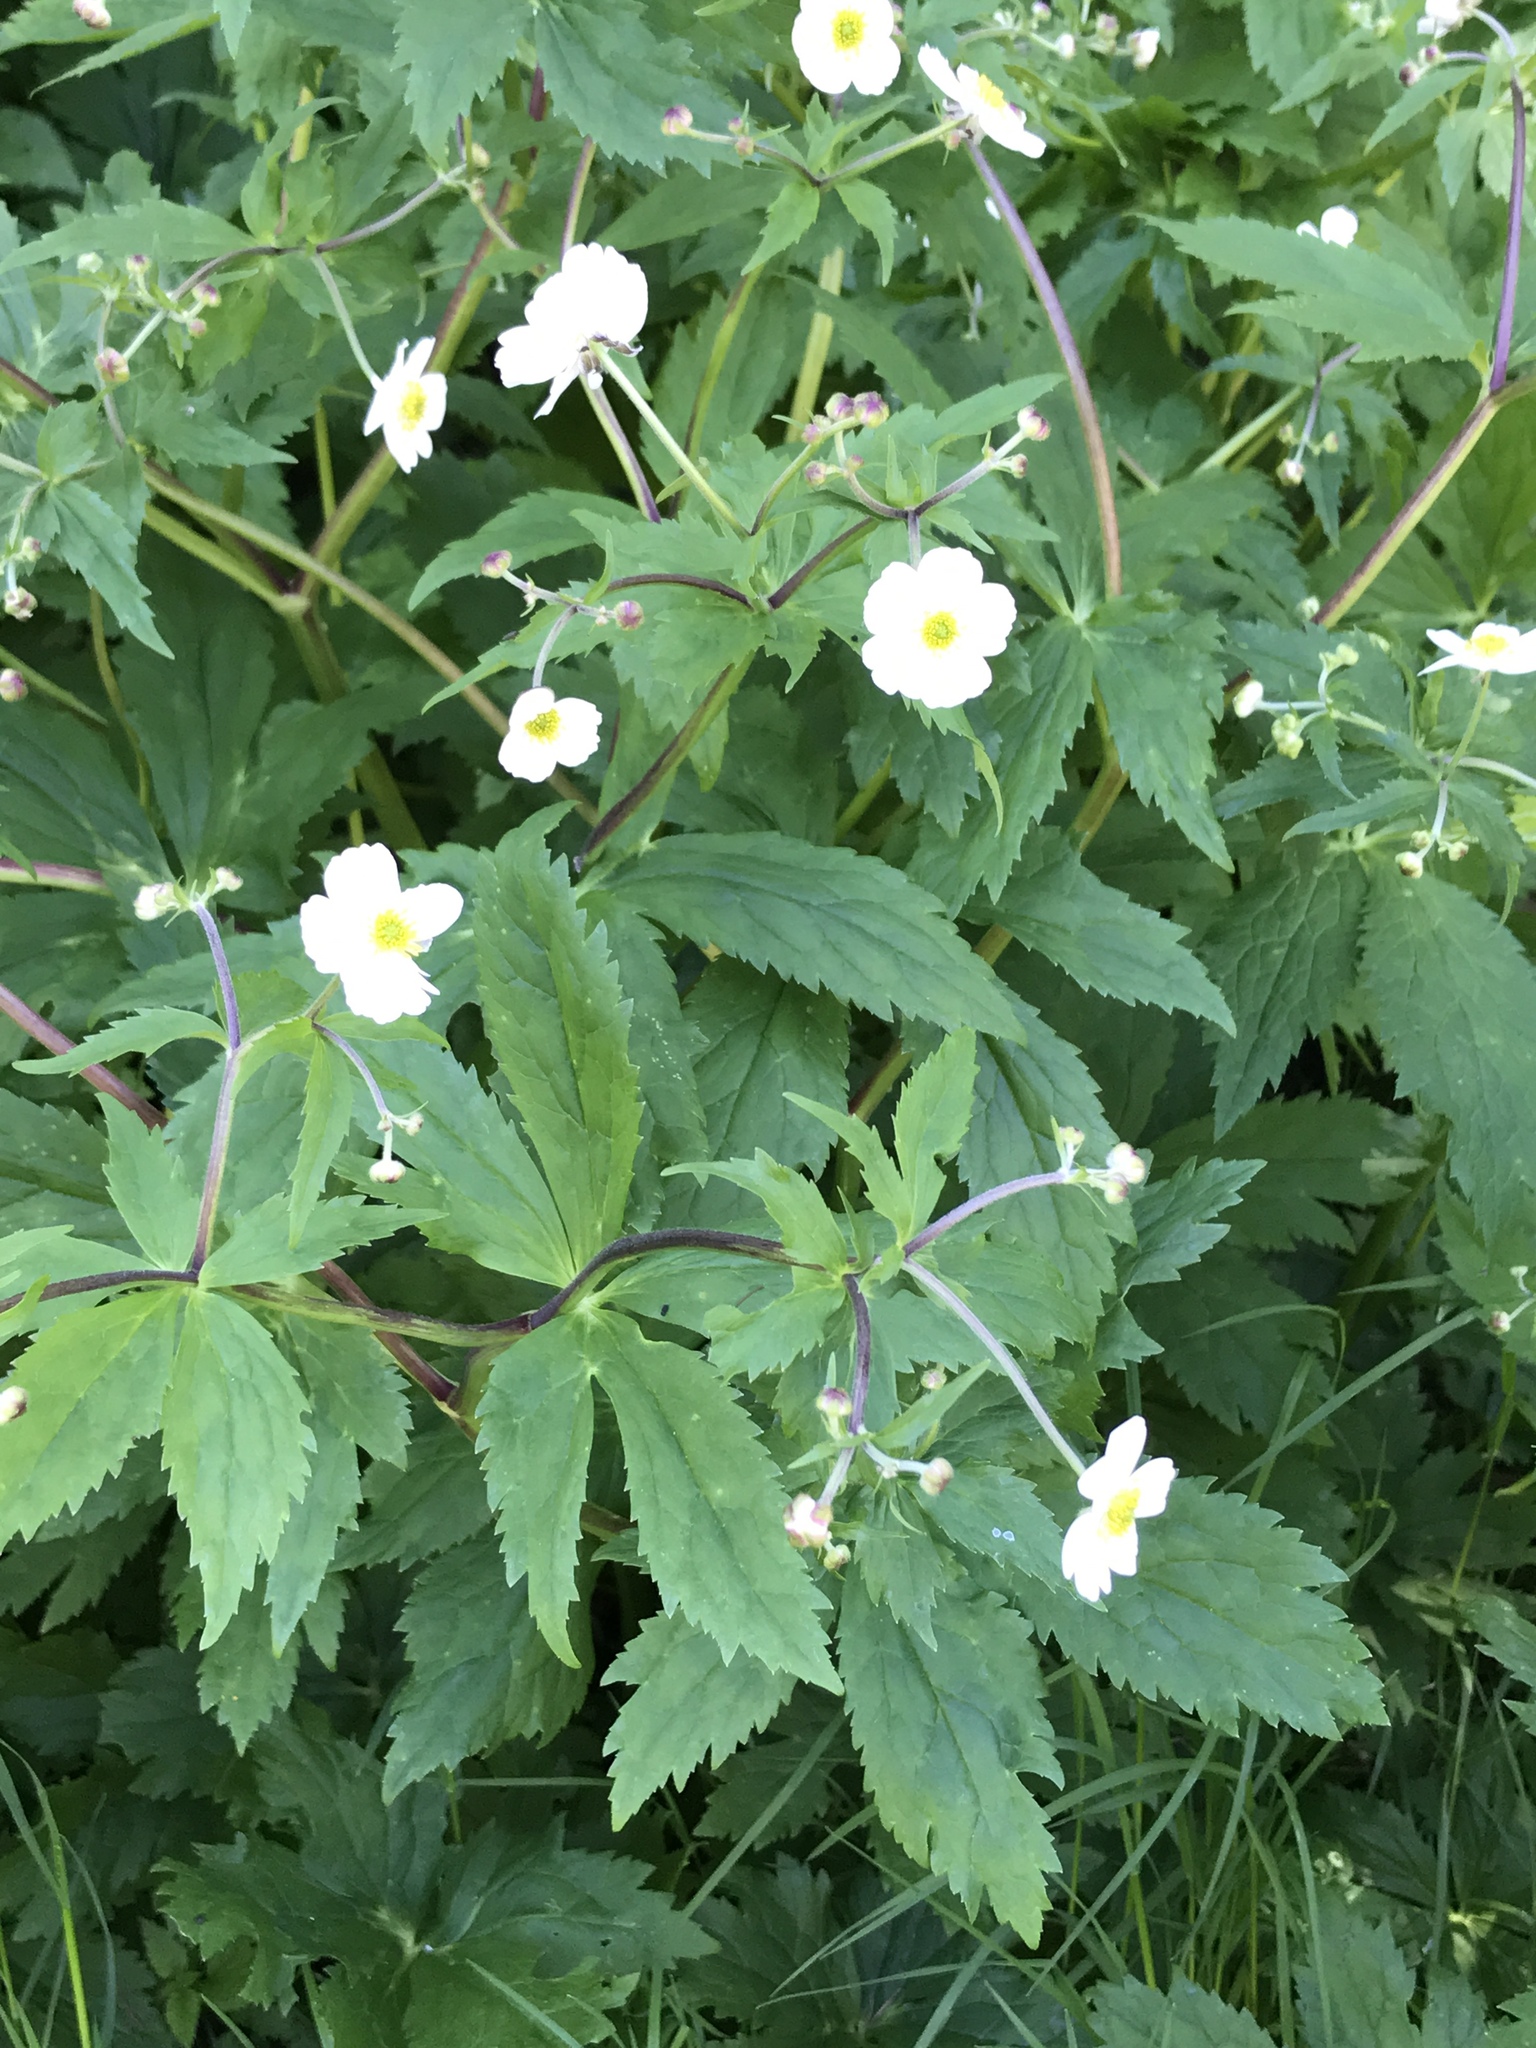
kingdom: Plantae
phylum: Tracheophyta
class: Magnoliopsida
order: Ranunculales
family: Ranunculaceae
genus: Ranunculus
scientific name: Ranunculus aconitifolius
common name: Aconite-leaved buttercup
